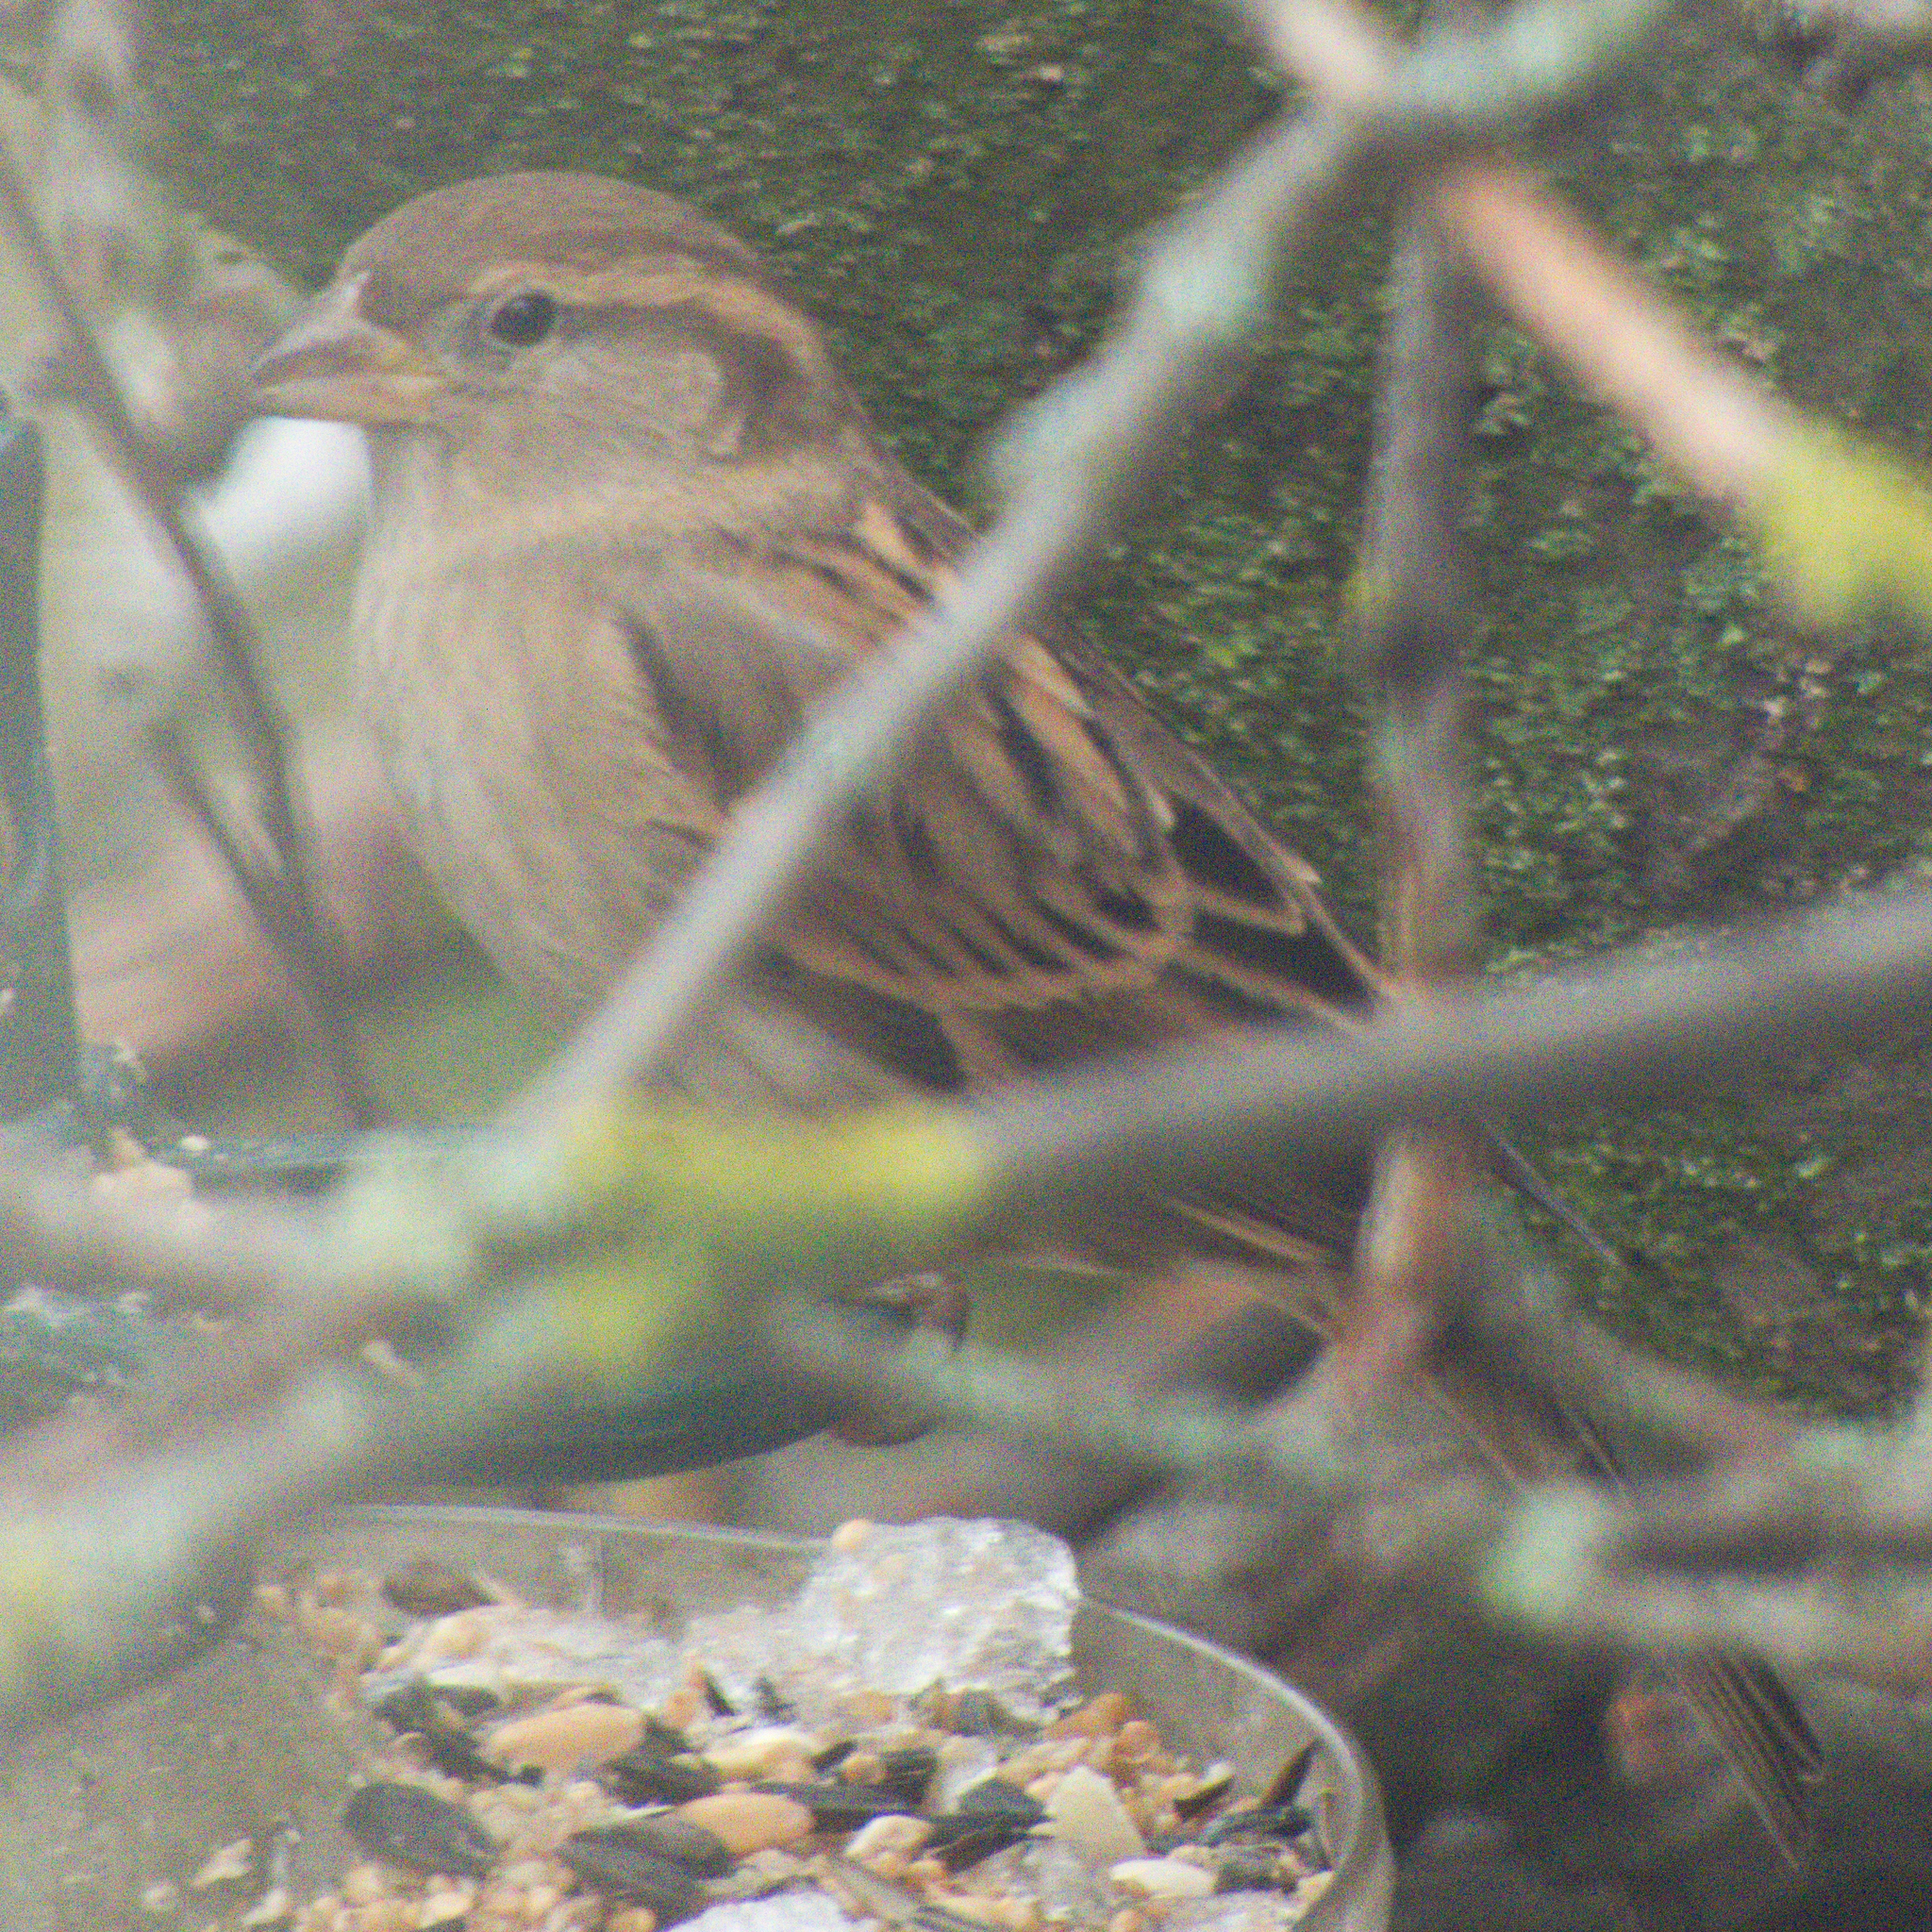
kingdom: Animalia
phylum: Chordata
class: Aves
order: Passeriformes
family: Passeridae
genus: Passer
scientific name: Passer domesticus
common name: House sparrow
